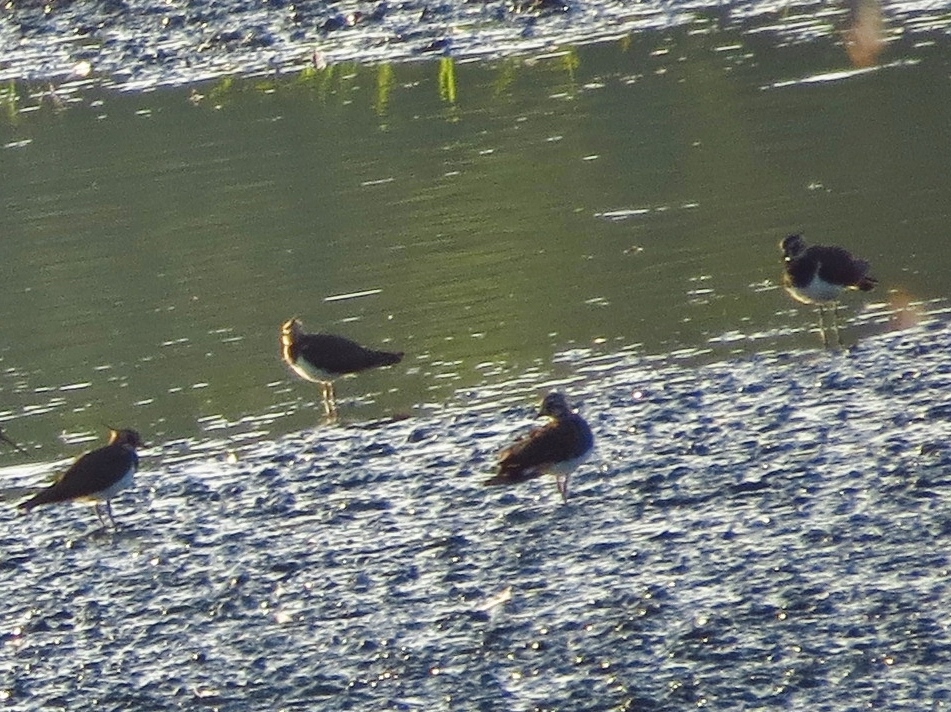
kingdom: Animalia
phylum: Chordata
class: Aves
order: Charadriiformes
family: Charadriidae
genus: Vanellus
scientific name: Vanellus vanellus
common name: Northern lapwing
